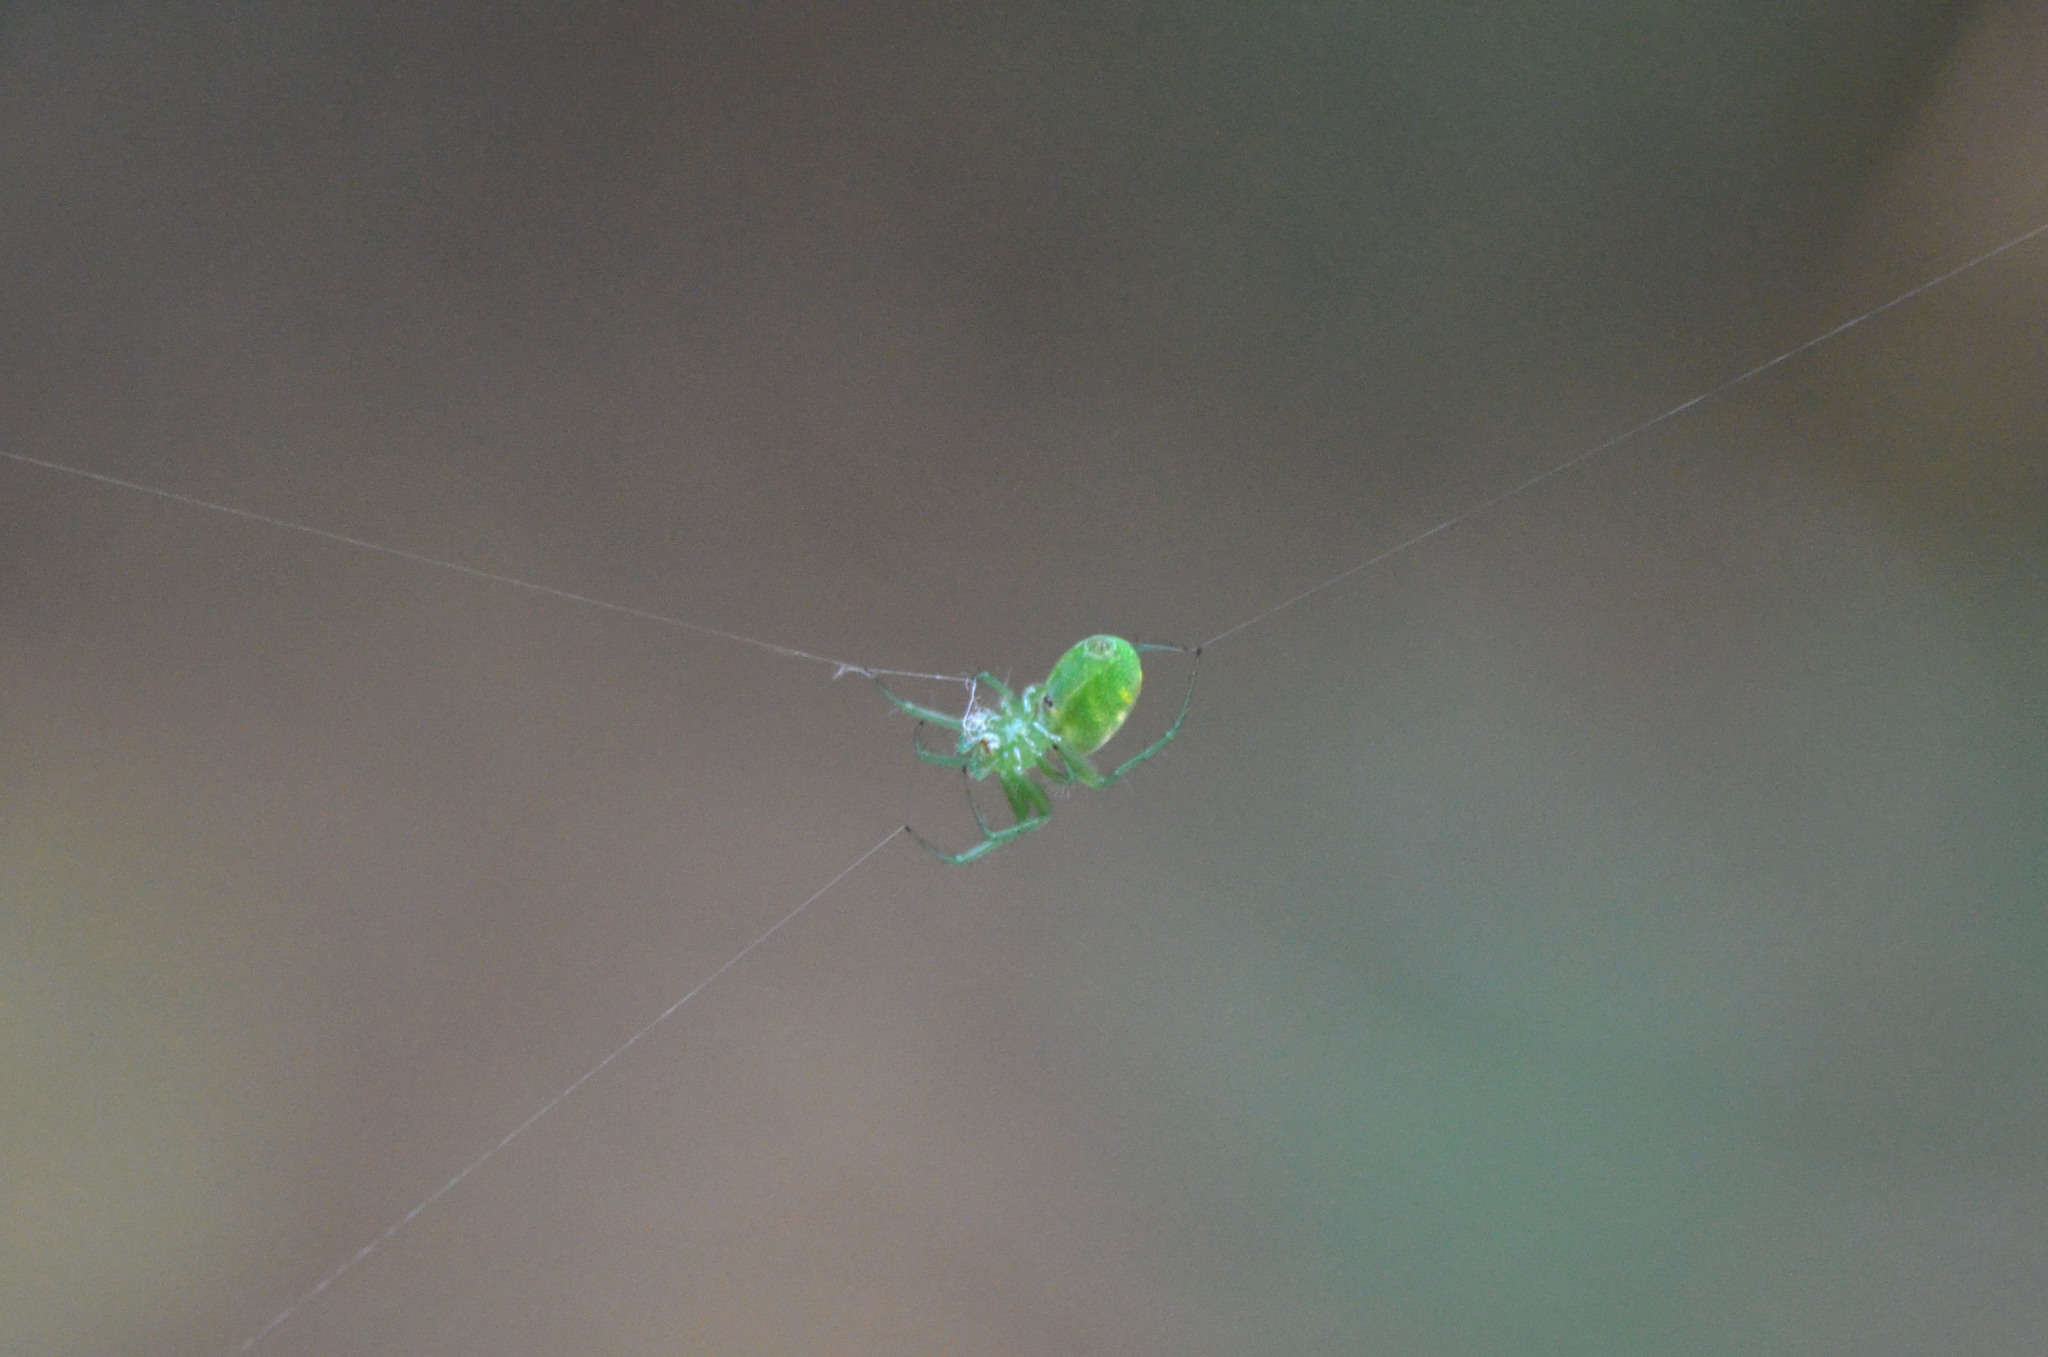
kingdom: Animalia
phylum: Arthropoda
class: Arachnida
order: Araneae
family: Araneidae
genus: Mangora
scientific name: Mangora lactea
